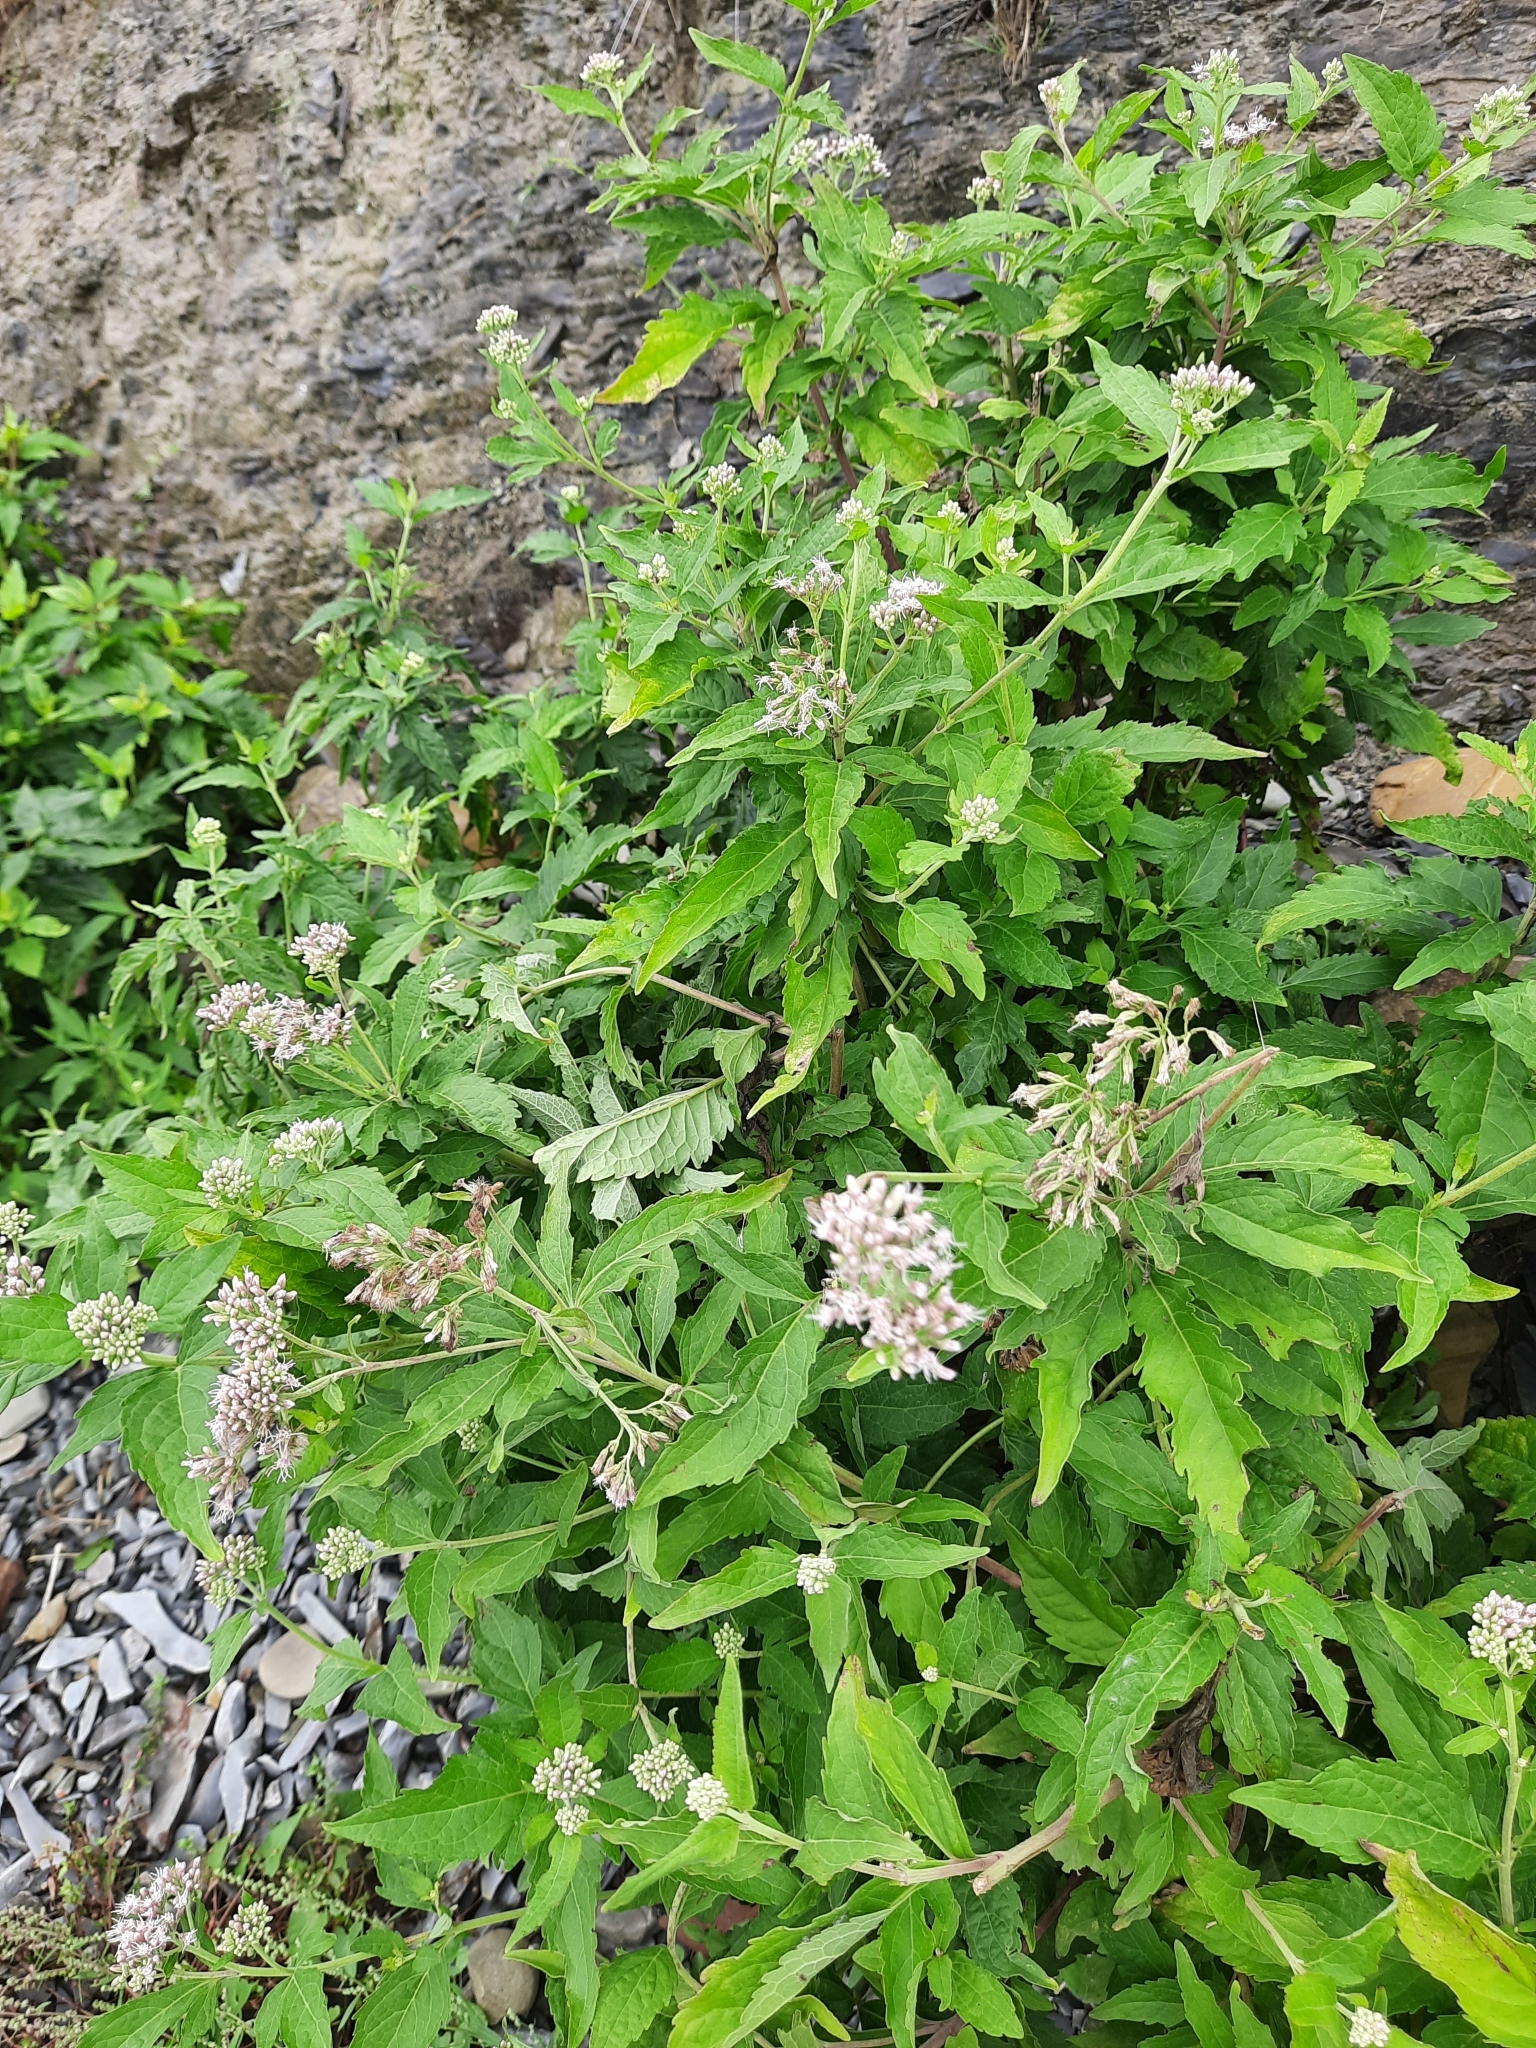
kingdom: Plantae
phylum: Tracheophyta
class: Magnoliopsida
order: Asterales
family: Asteraceae
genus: Eupatorium
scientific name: Eupatorium cannabinum
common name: Hemp-agrimony
